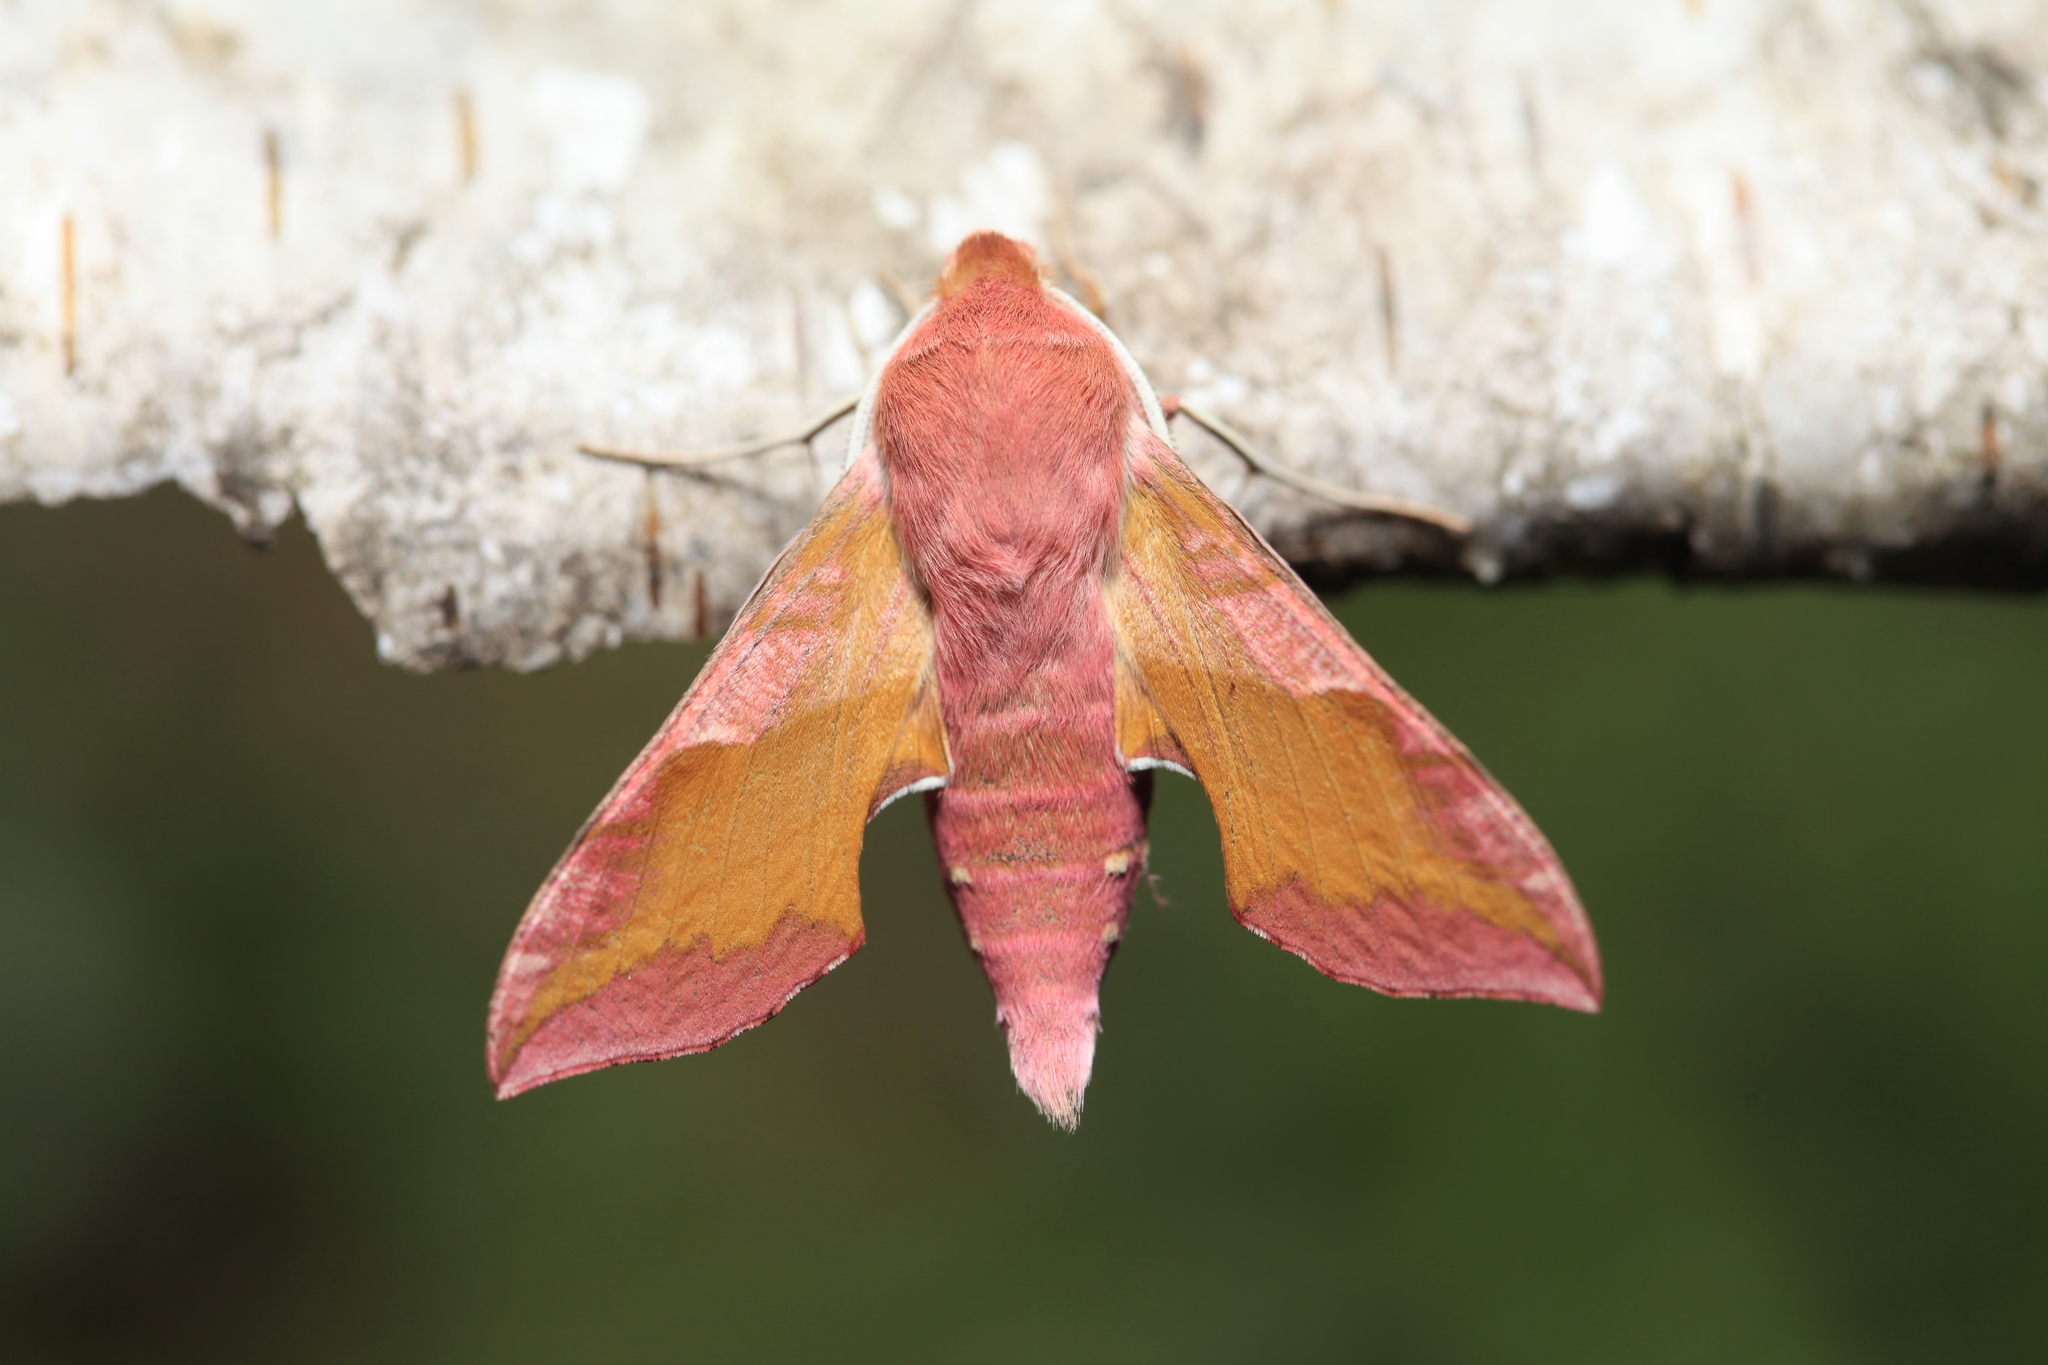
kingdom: Animalia
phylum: Arthropoda
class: Insecta
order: Lepidoptera
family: Sphingidae
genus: Deilephila
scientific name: Deilephila porcellus
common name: Small elephant hawk-moth
